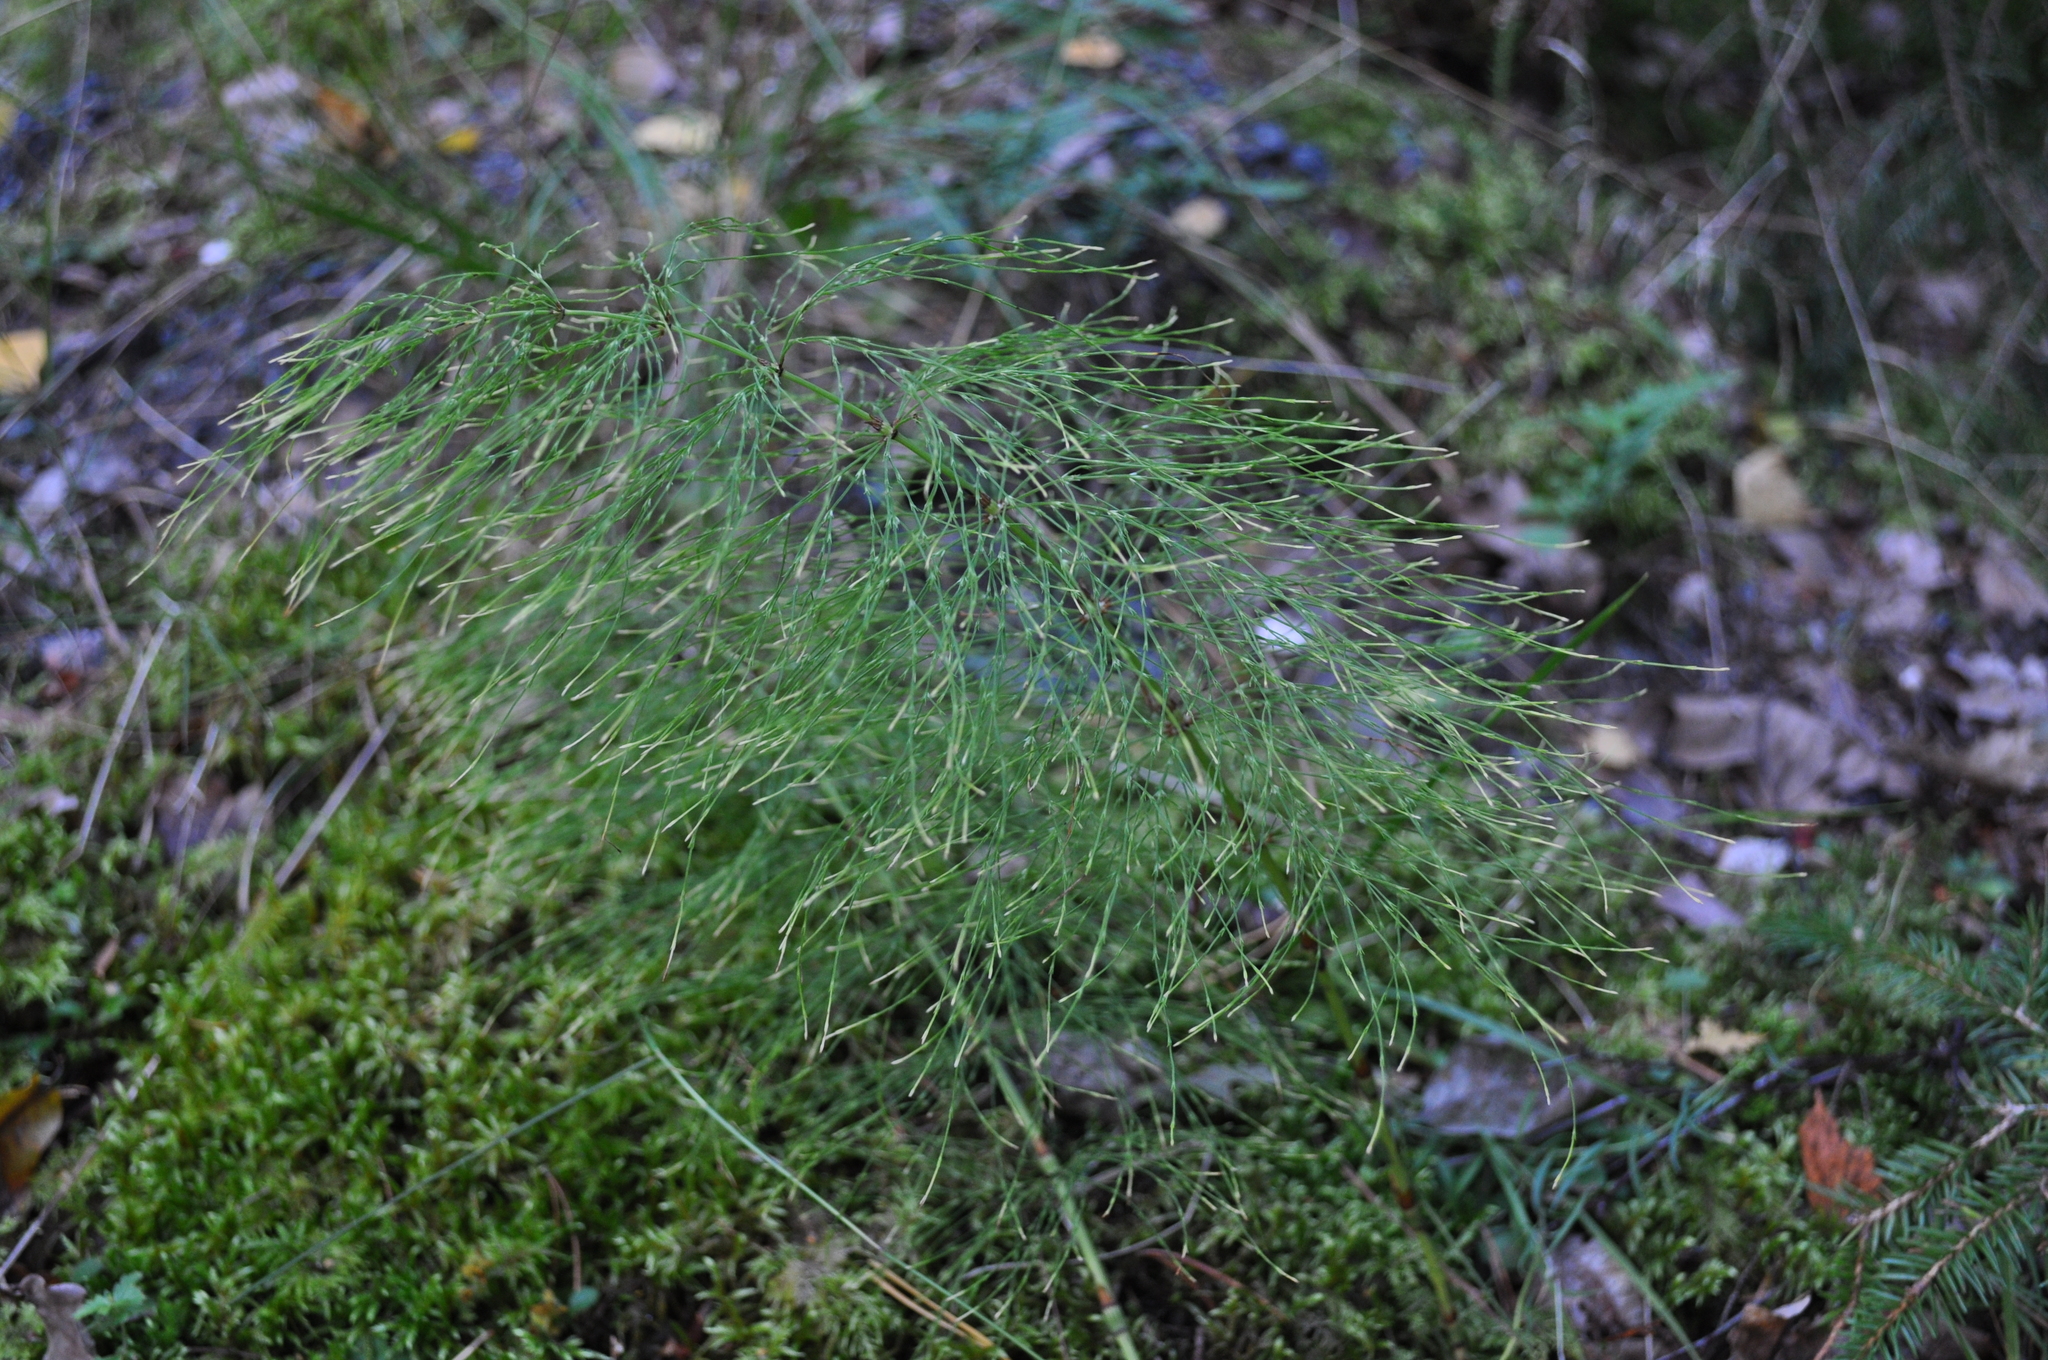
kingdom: Plantae
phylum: Tracheophyta
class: Polypodiopsida
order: Equisetales
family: Equisetaceae
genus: Equisetum
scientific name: Equisetum sylvaticum
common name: Wood horsetail
